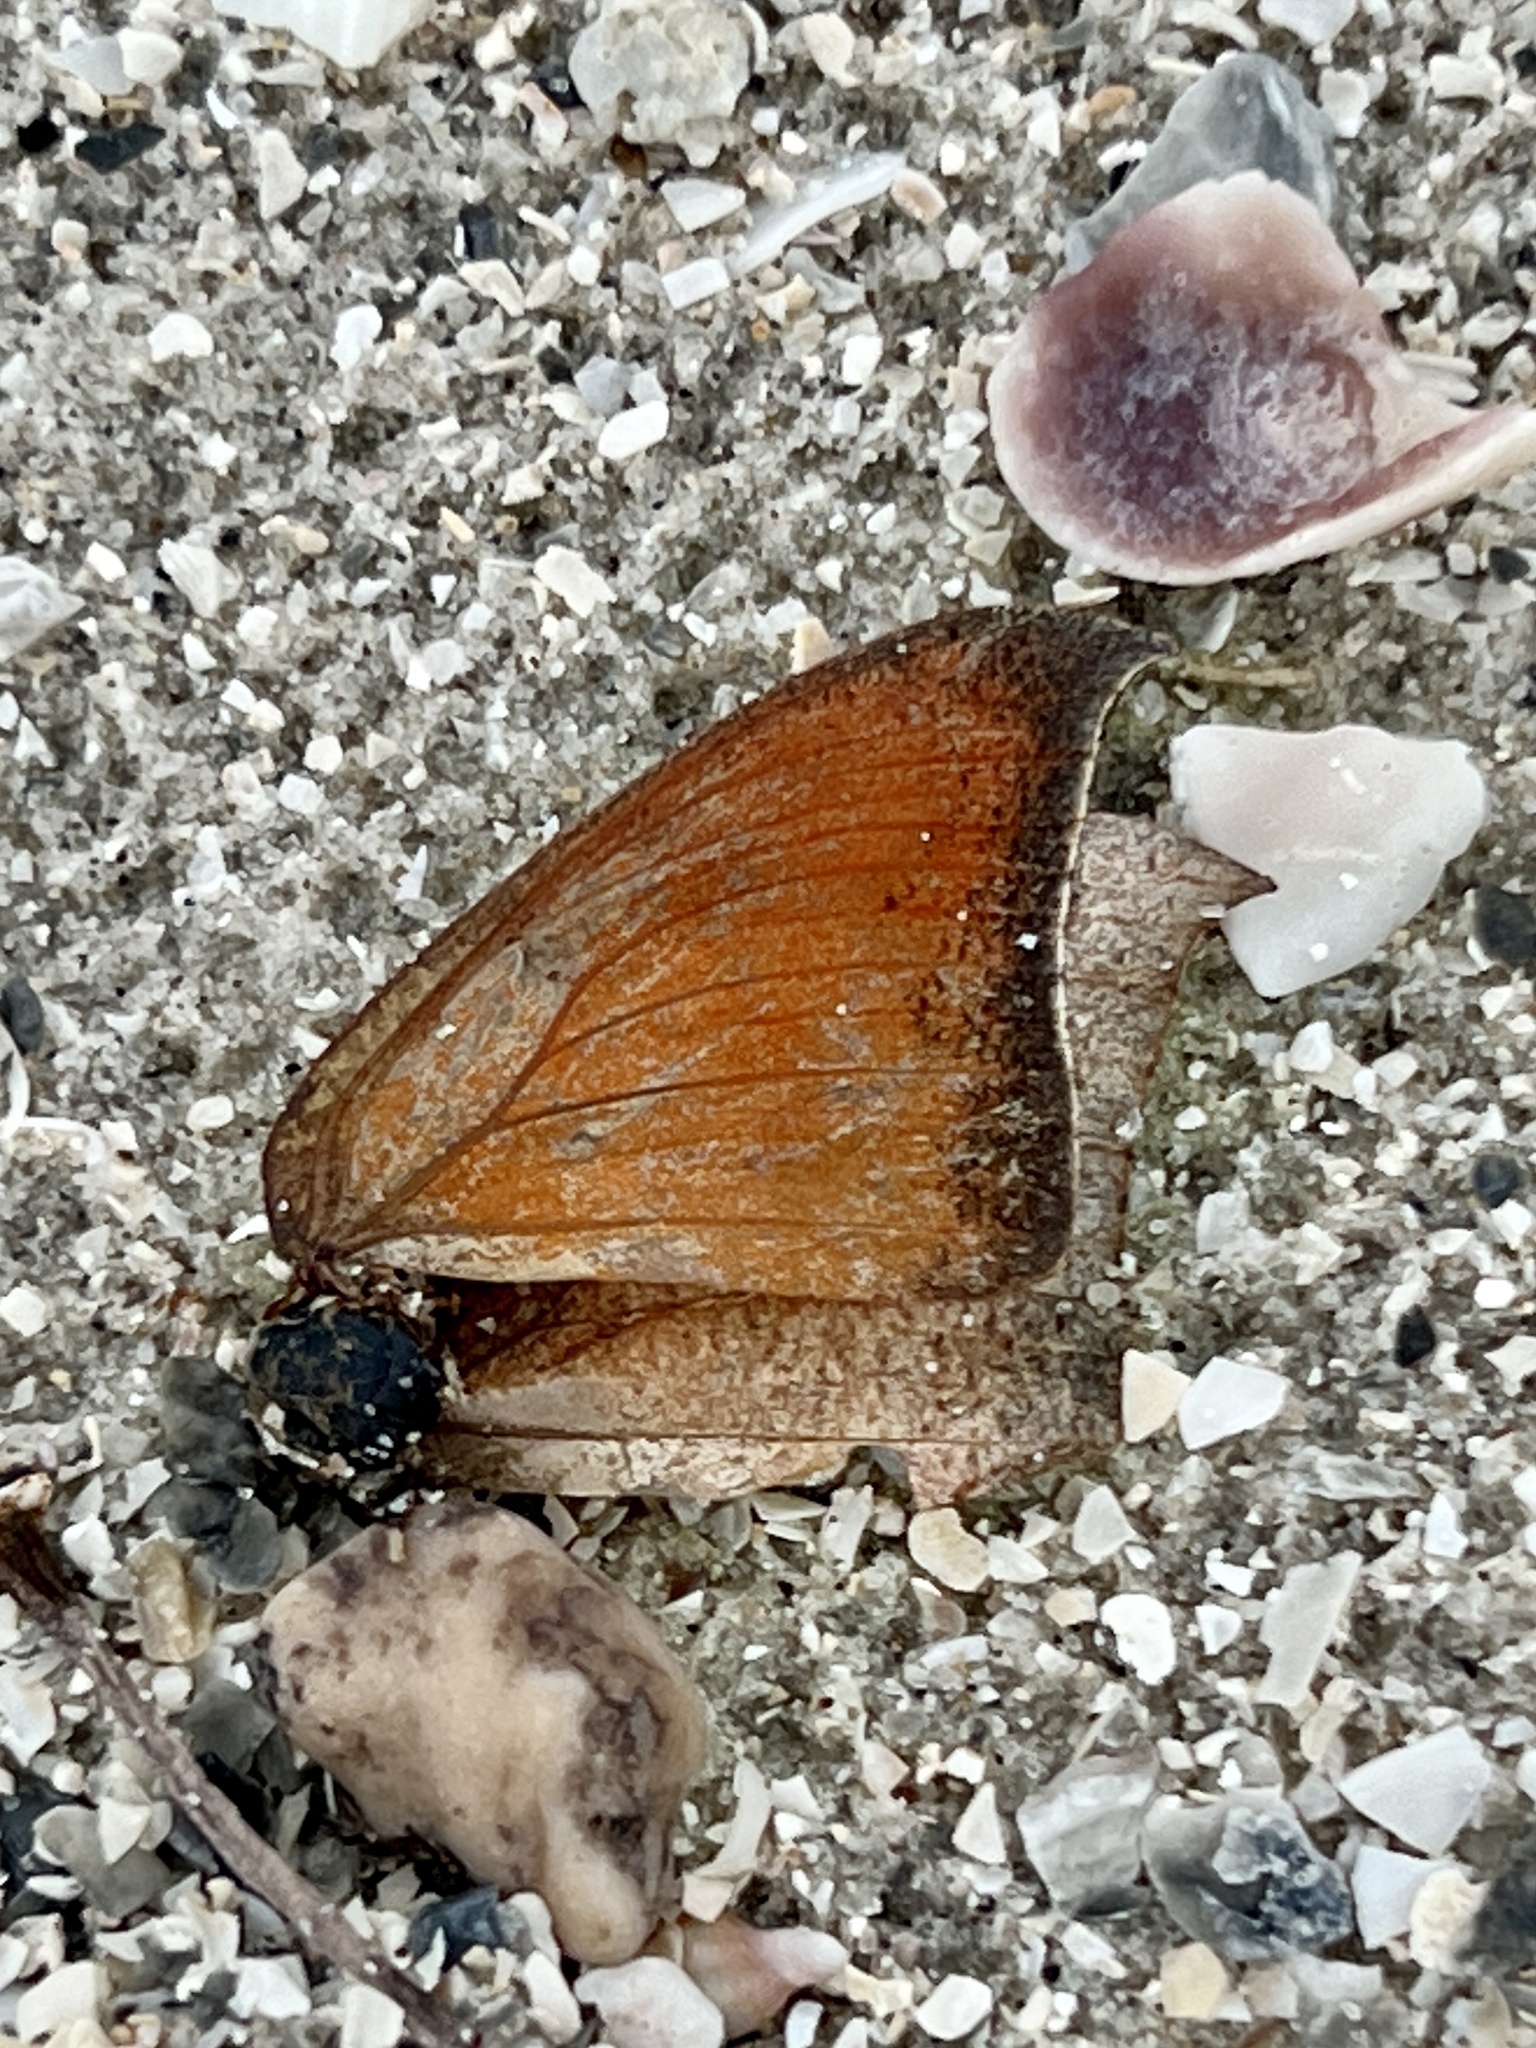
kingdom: Animalia
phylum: Arthropoda
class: Insecta
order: Lepidoptera
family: Nymphalidae
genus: Anaea
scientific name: Anaea andria
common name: Goatweed leafwing
